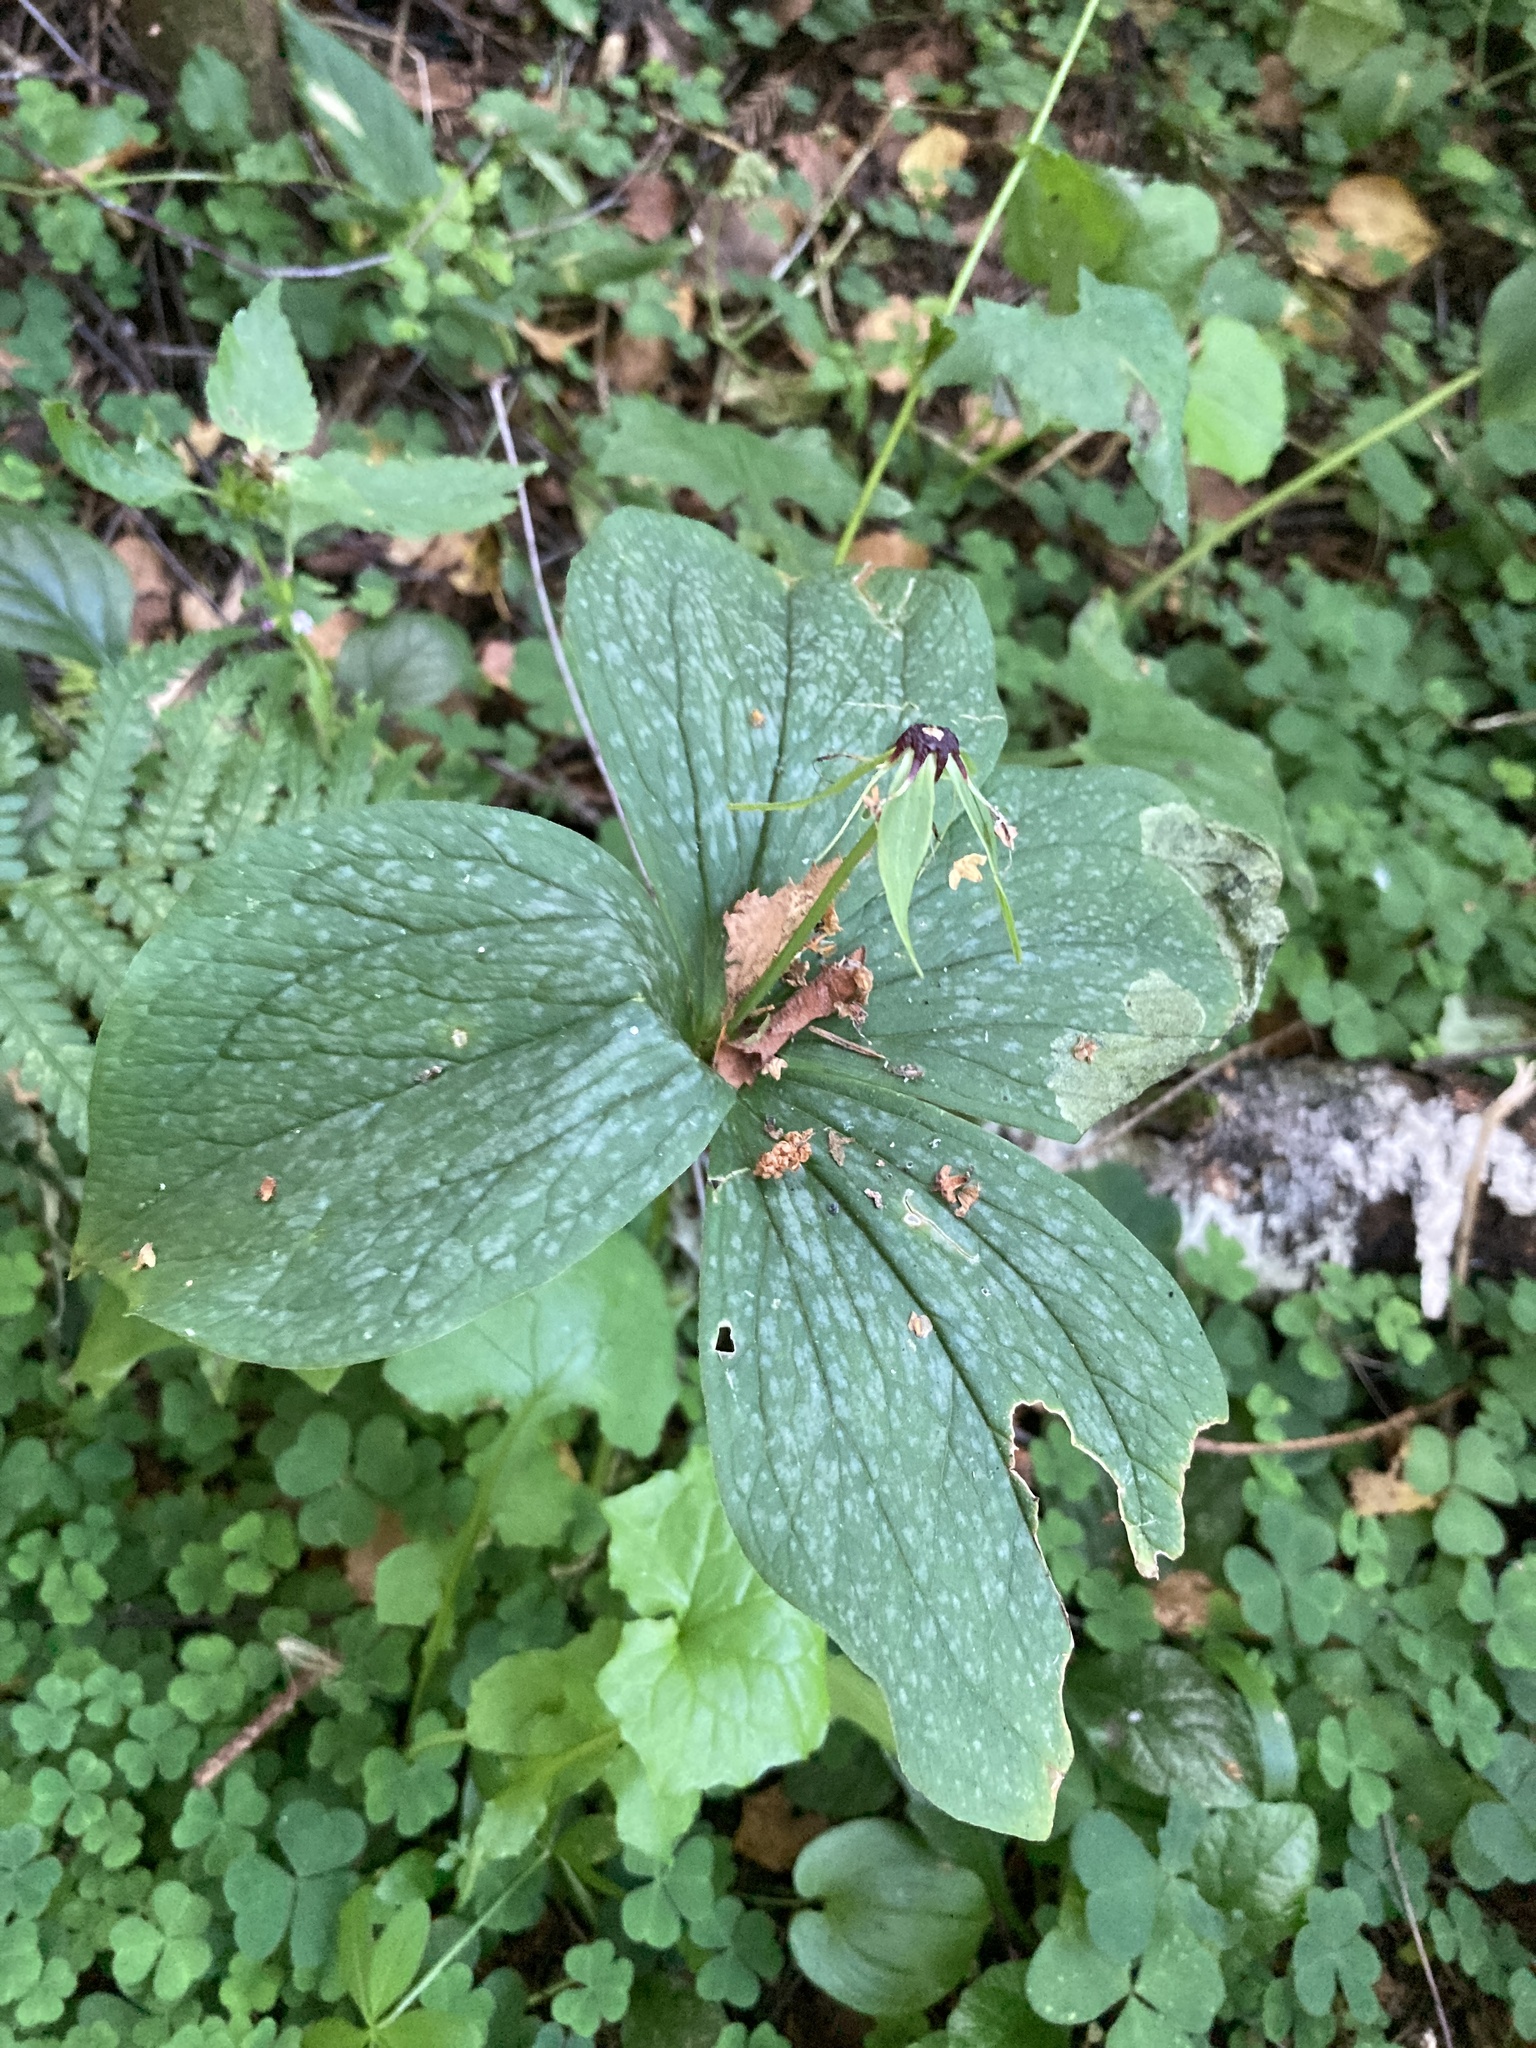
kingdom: Plantae
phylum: Tracheophyta
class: Liliopsida
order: Liliales
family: Melanthiaceae
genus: Paris
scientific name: Paris quadrifolia
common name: Herb-paris
